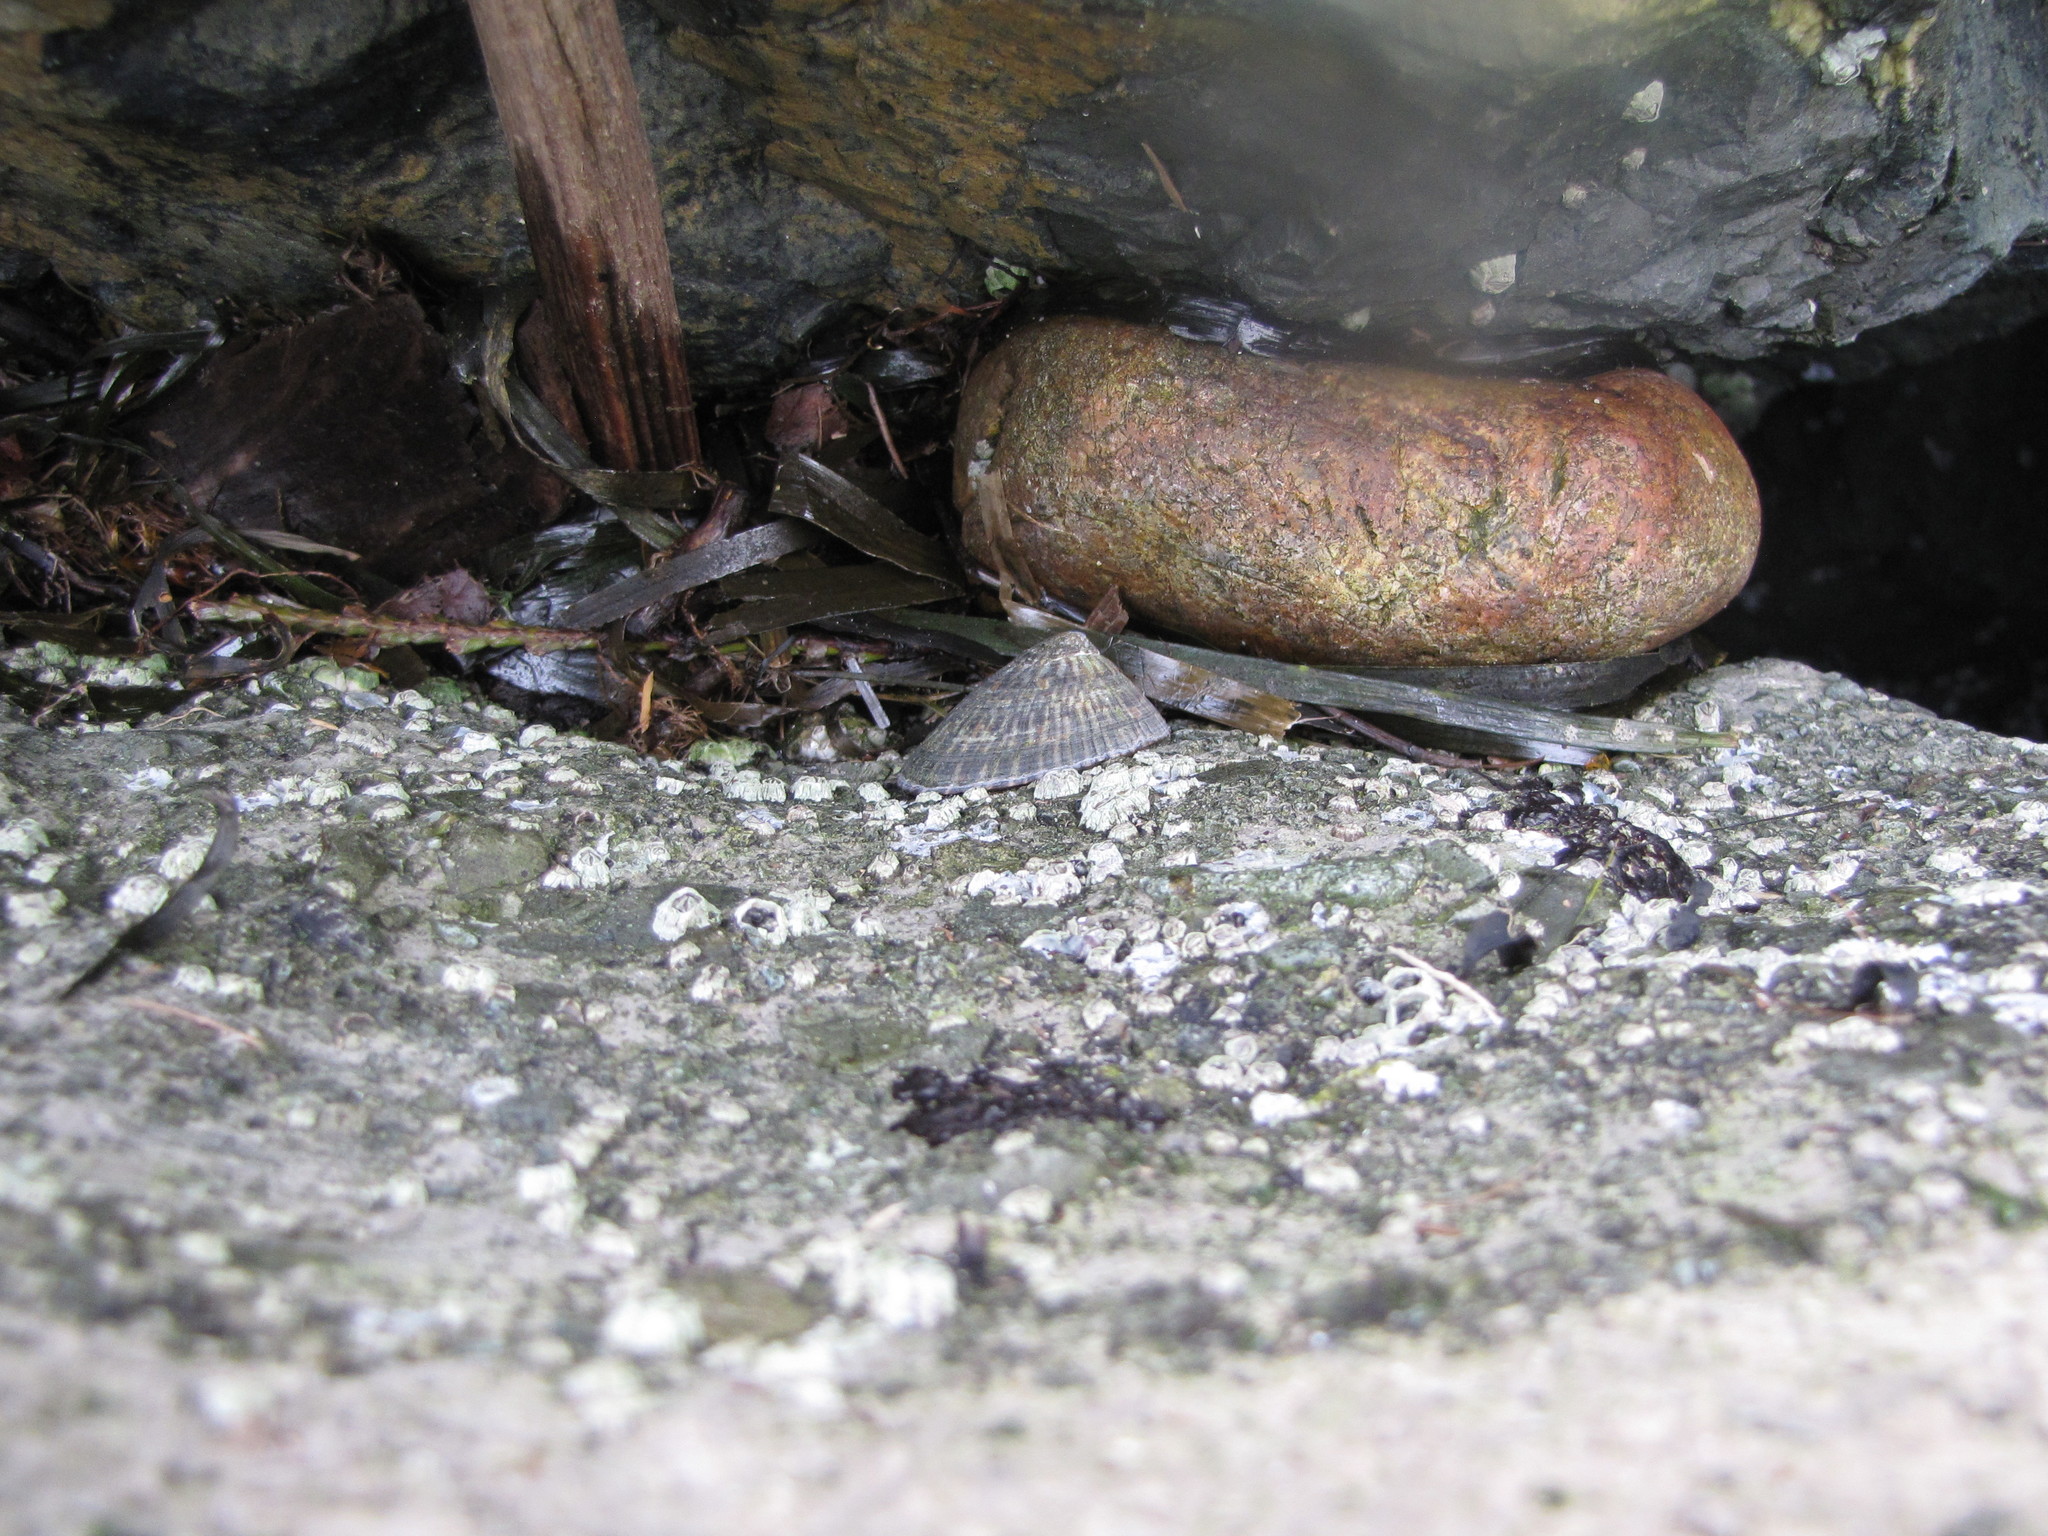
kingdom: Animalia
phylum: Mollusca
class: Gastropoda
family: Lottiidae
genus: Lottia
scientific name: Lottia persona
